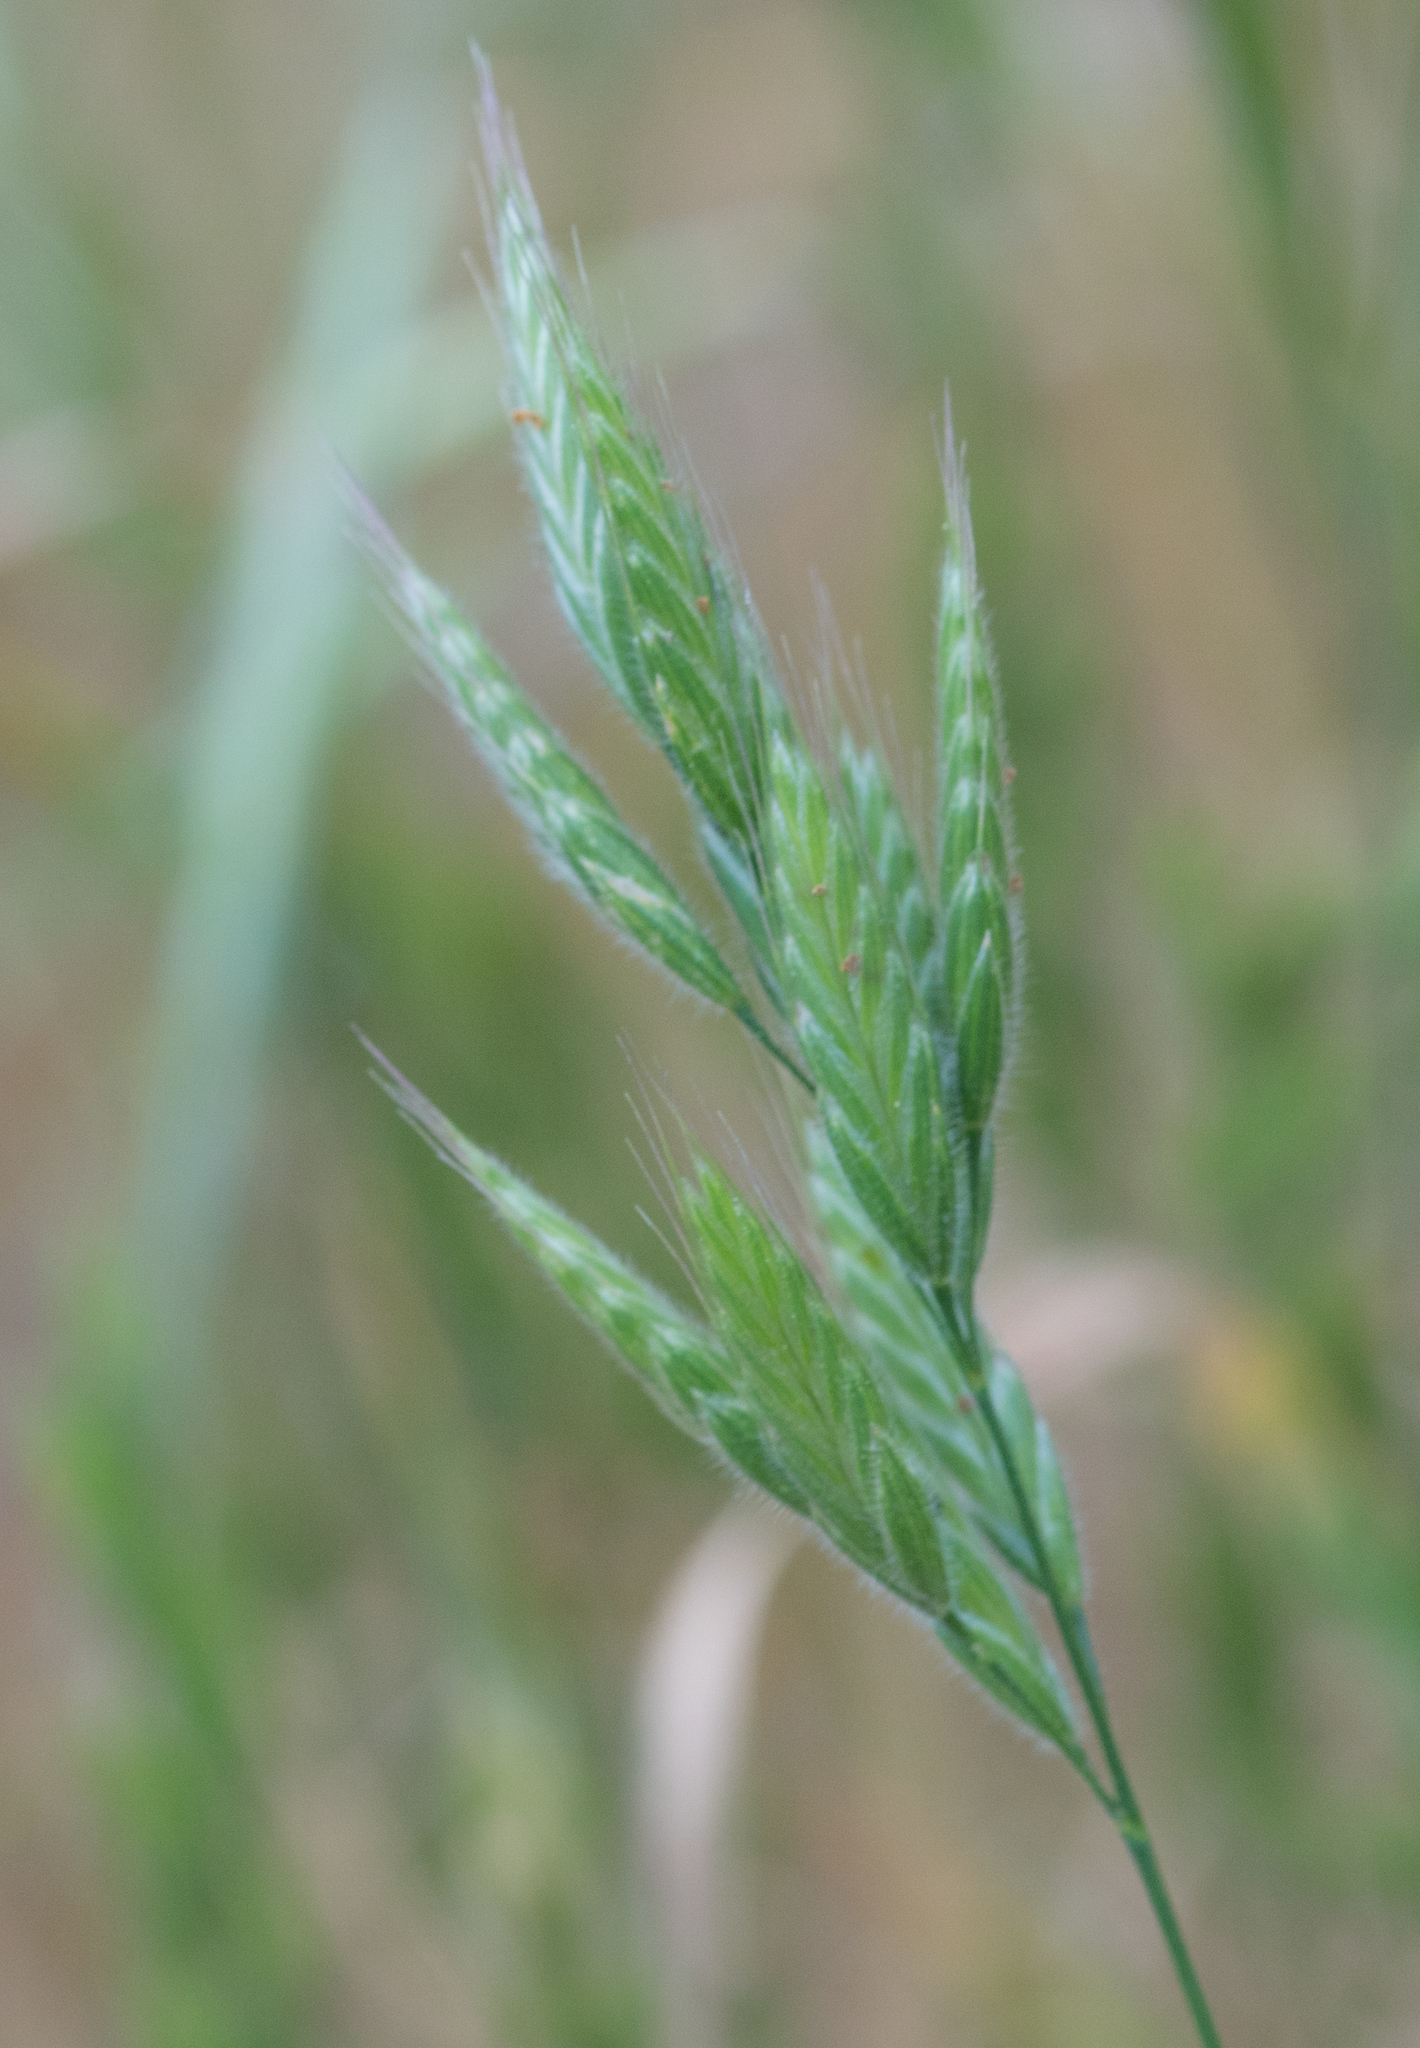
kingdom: Plantae
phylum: Tracheophyta
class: Liliopsida
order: Poales
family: Poaceae
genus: Bromus
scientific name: Bromus hordeaceus
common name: Soft brome
